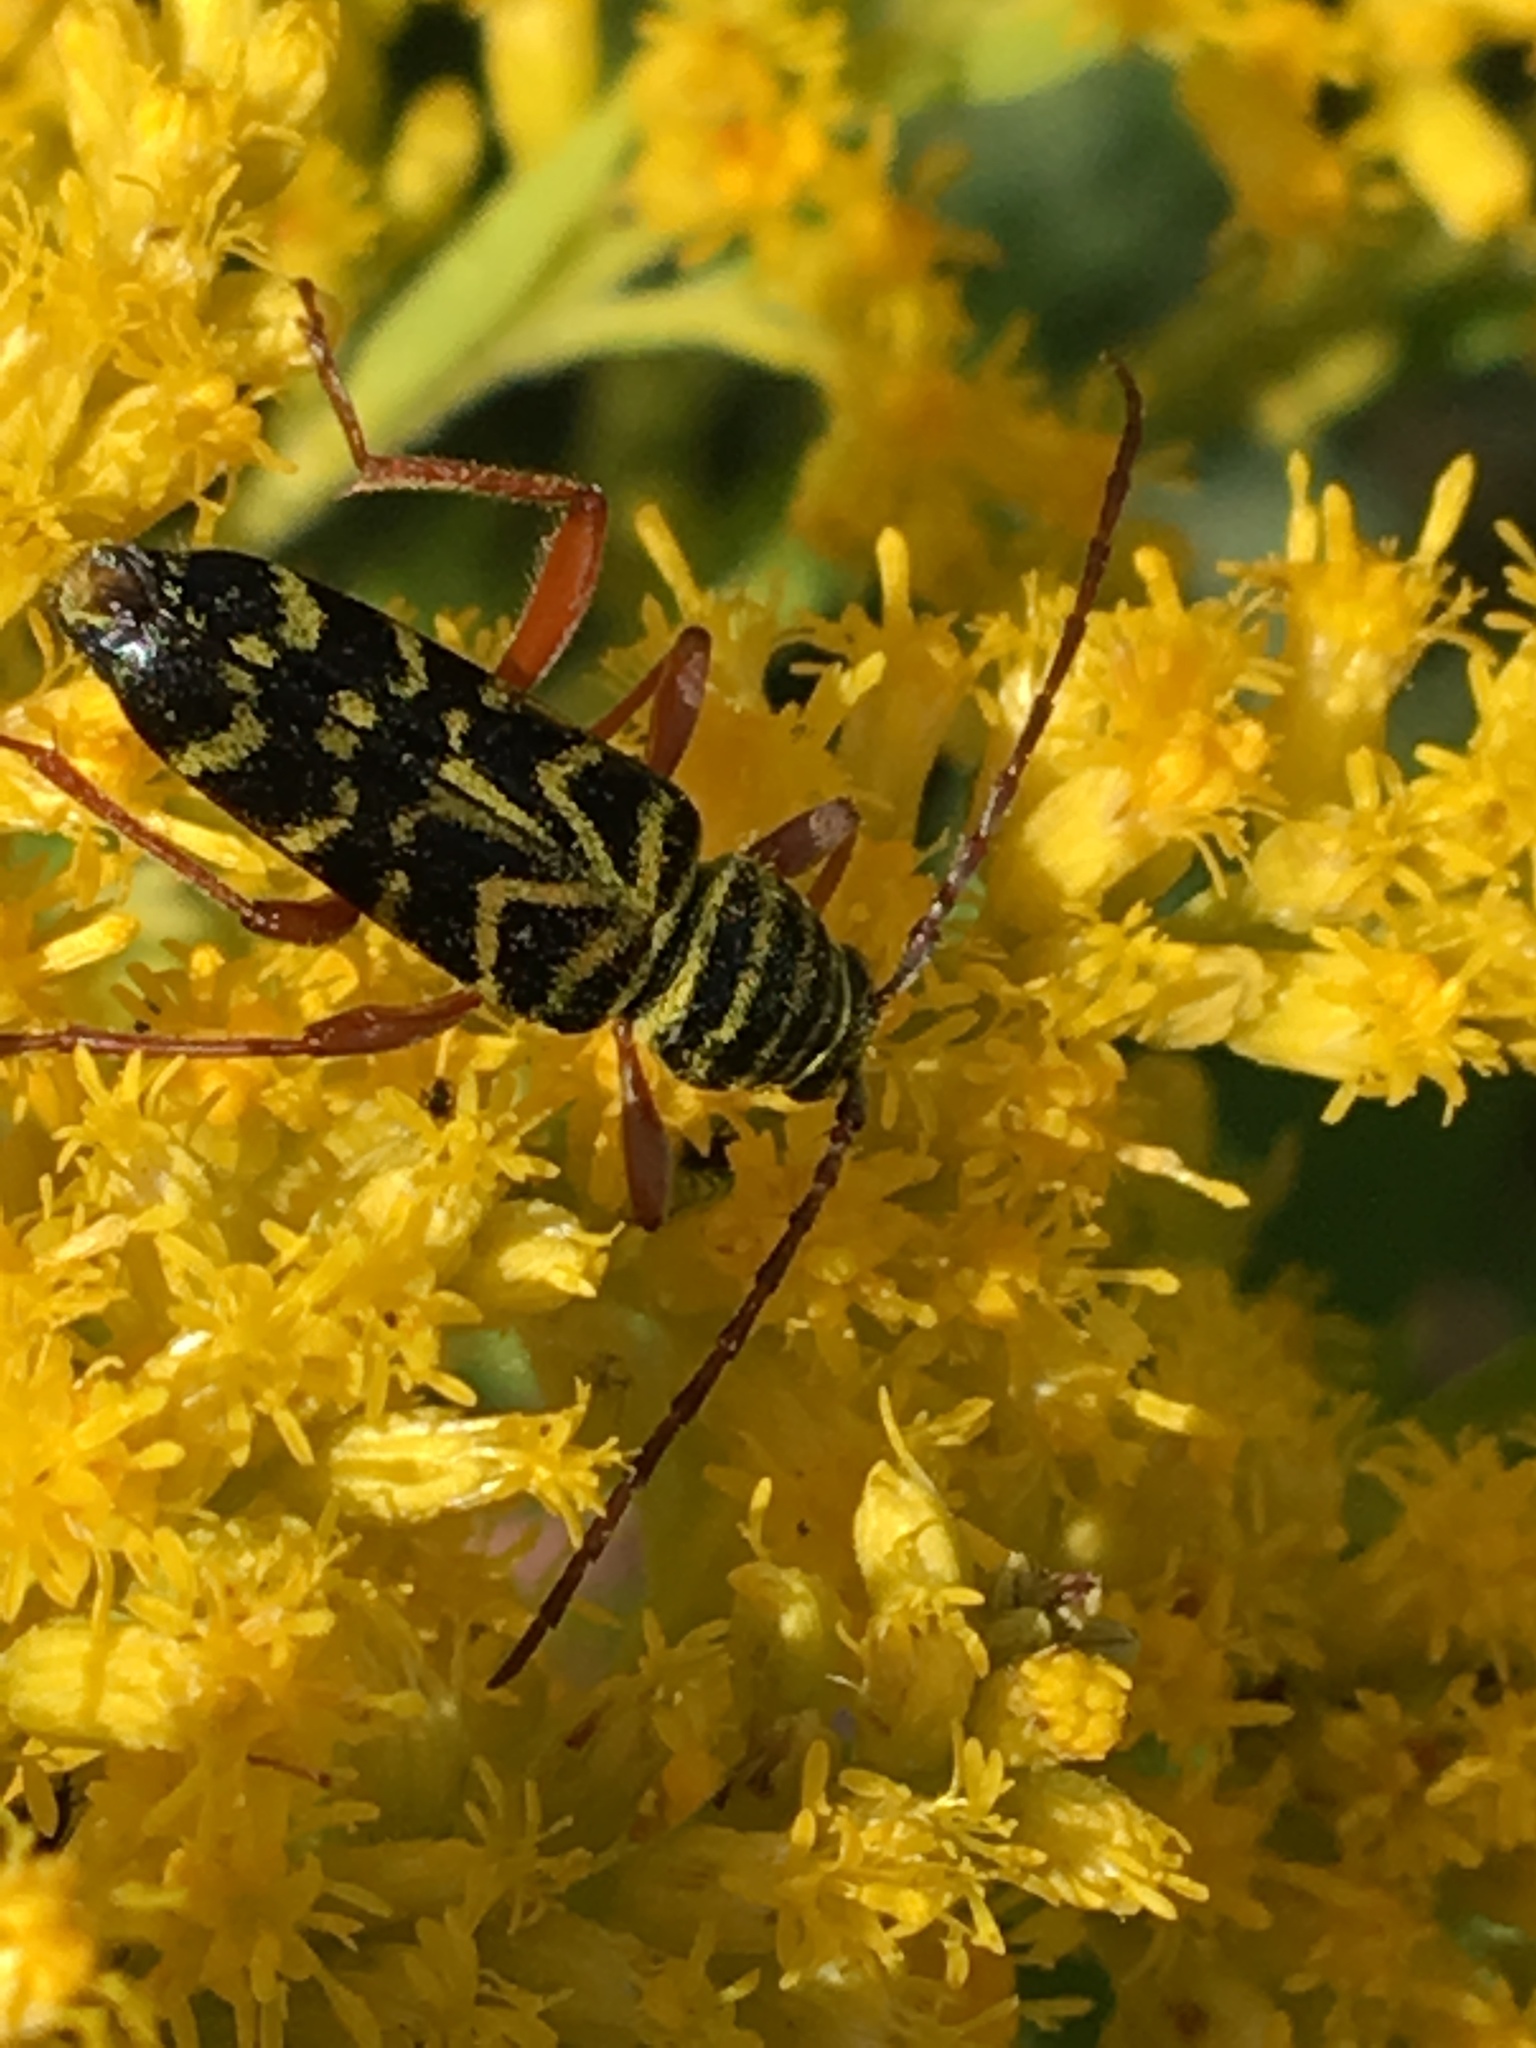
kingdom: Animalia
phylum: Arthropoda
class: Insecta
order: Coleoptera
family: Cerambycidae
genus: Megacyllene
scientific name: Megacyllene robiniae
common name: Locust borer
